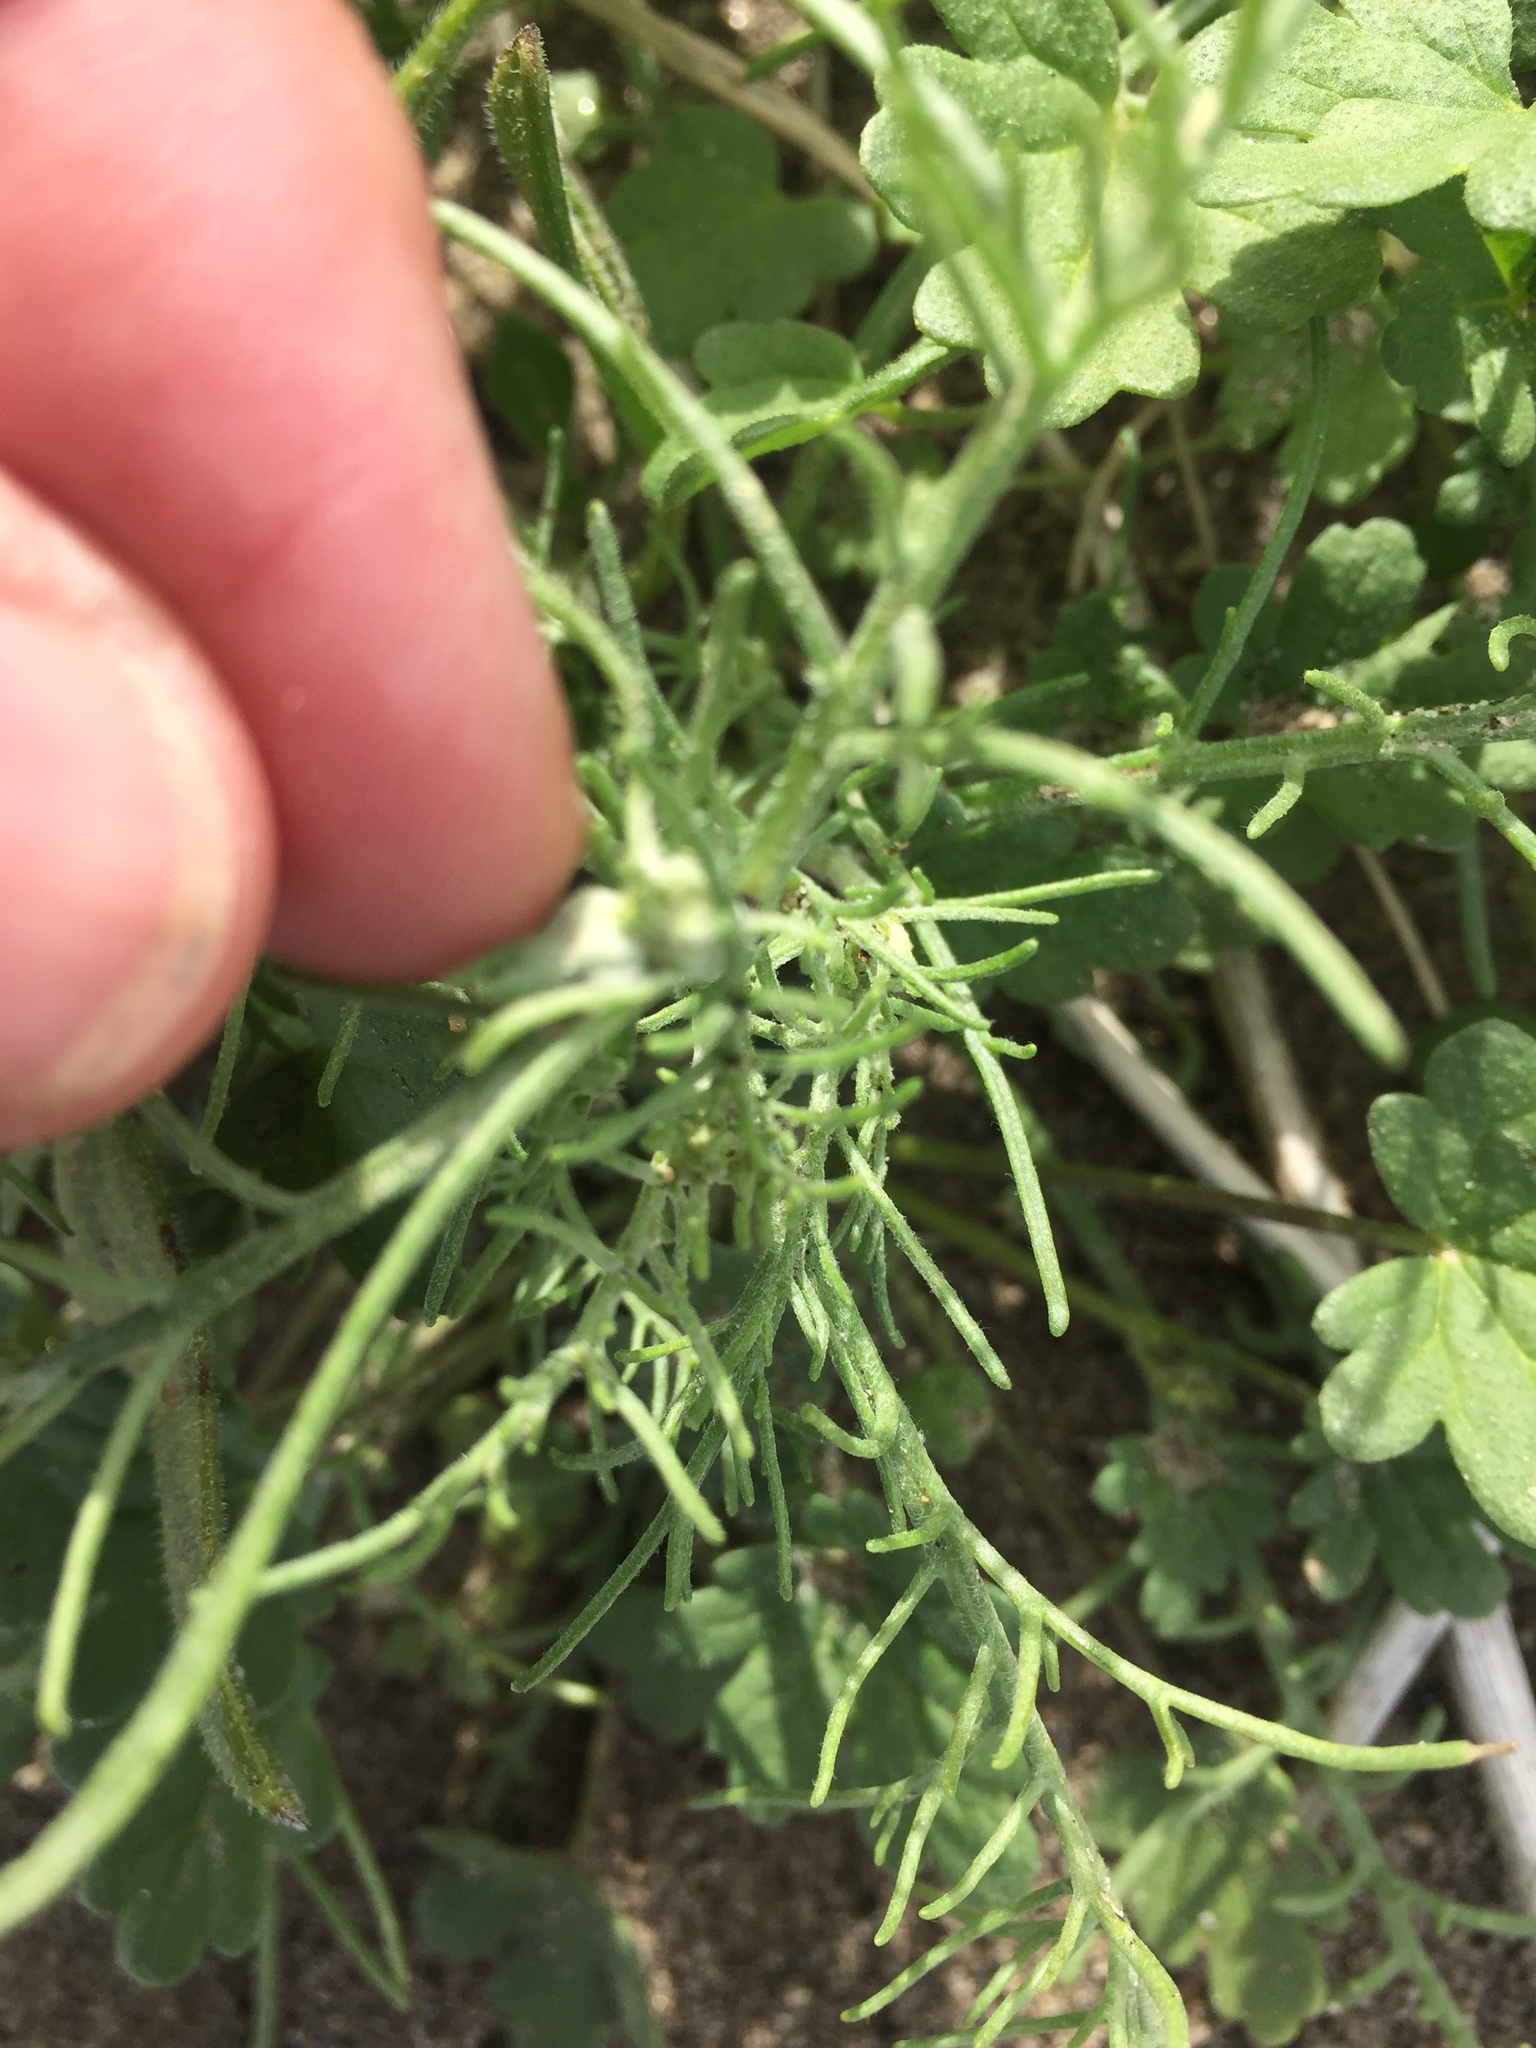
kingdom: Plantae
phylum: Tracheophyta
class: Magnoliopsida
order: Asterales
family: Asteraceae
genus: Chaenactis
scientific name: Chaenactis stevioides
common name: Desert pincushion
